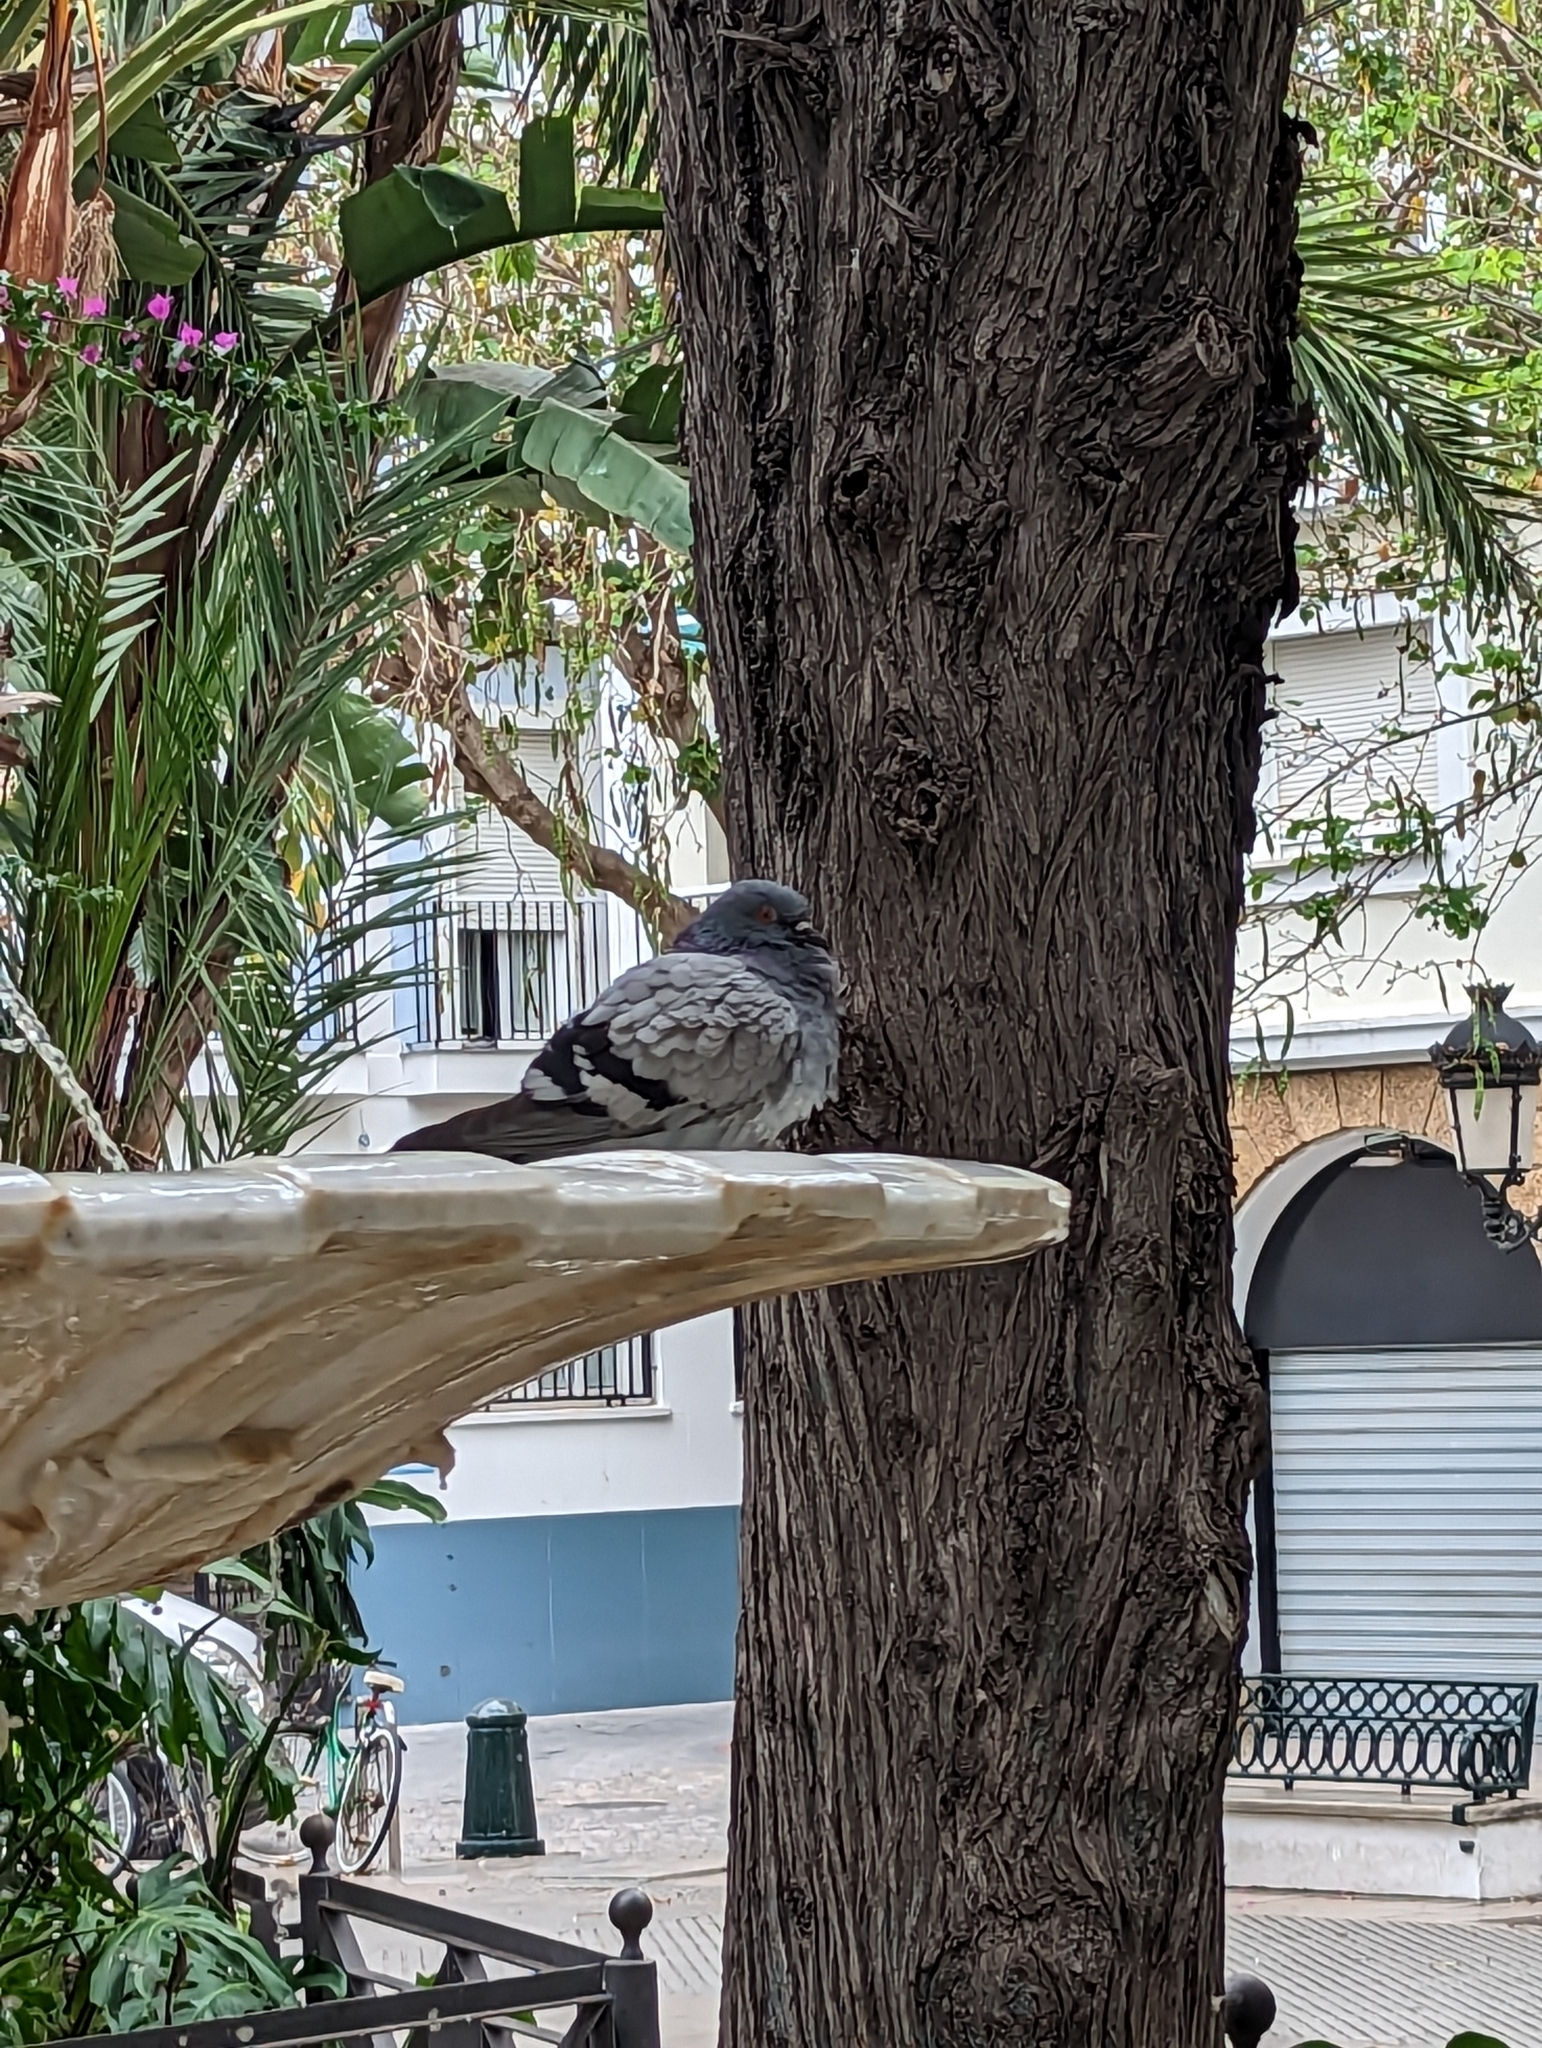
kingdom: Animalia
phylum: Chordata
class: Aves
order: Columbiformes
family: Columbidae
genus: Columba
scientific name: Columba livia
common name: Rock pigeon
